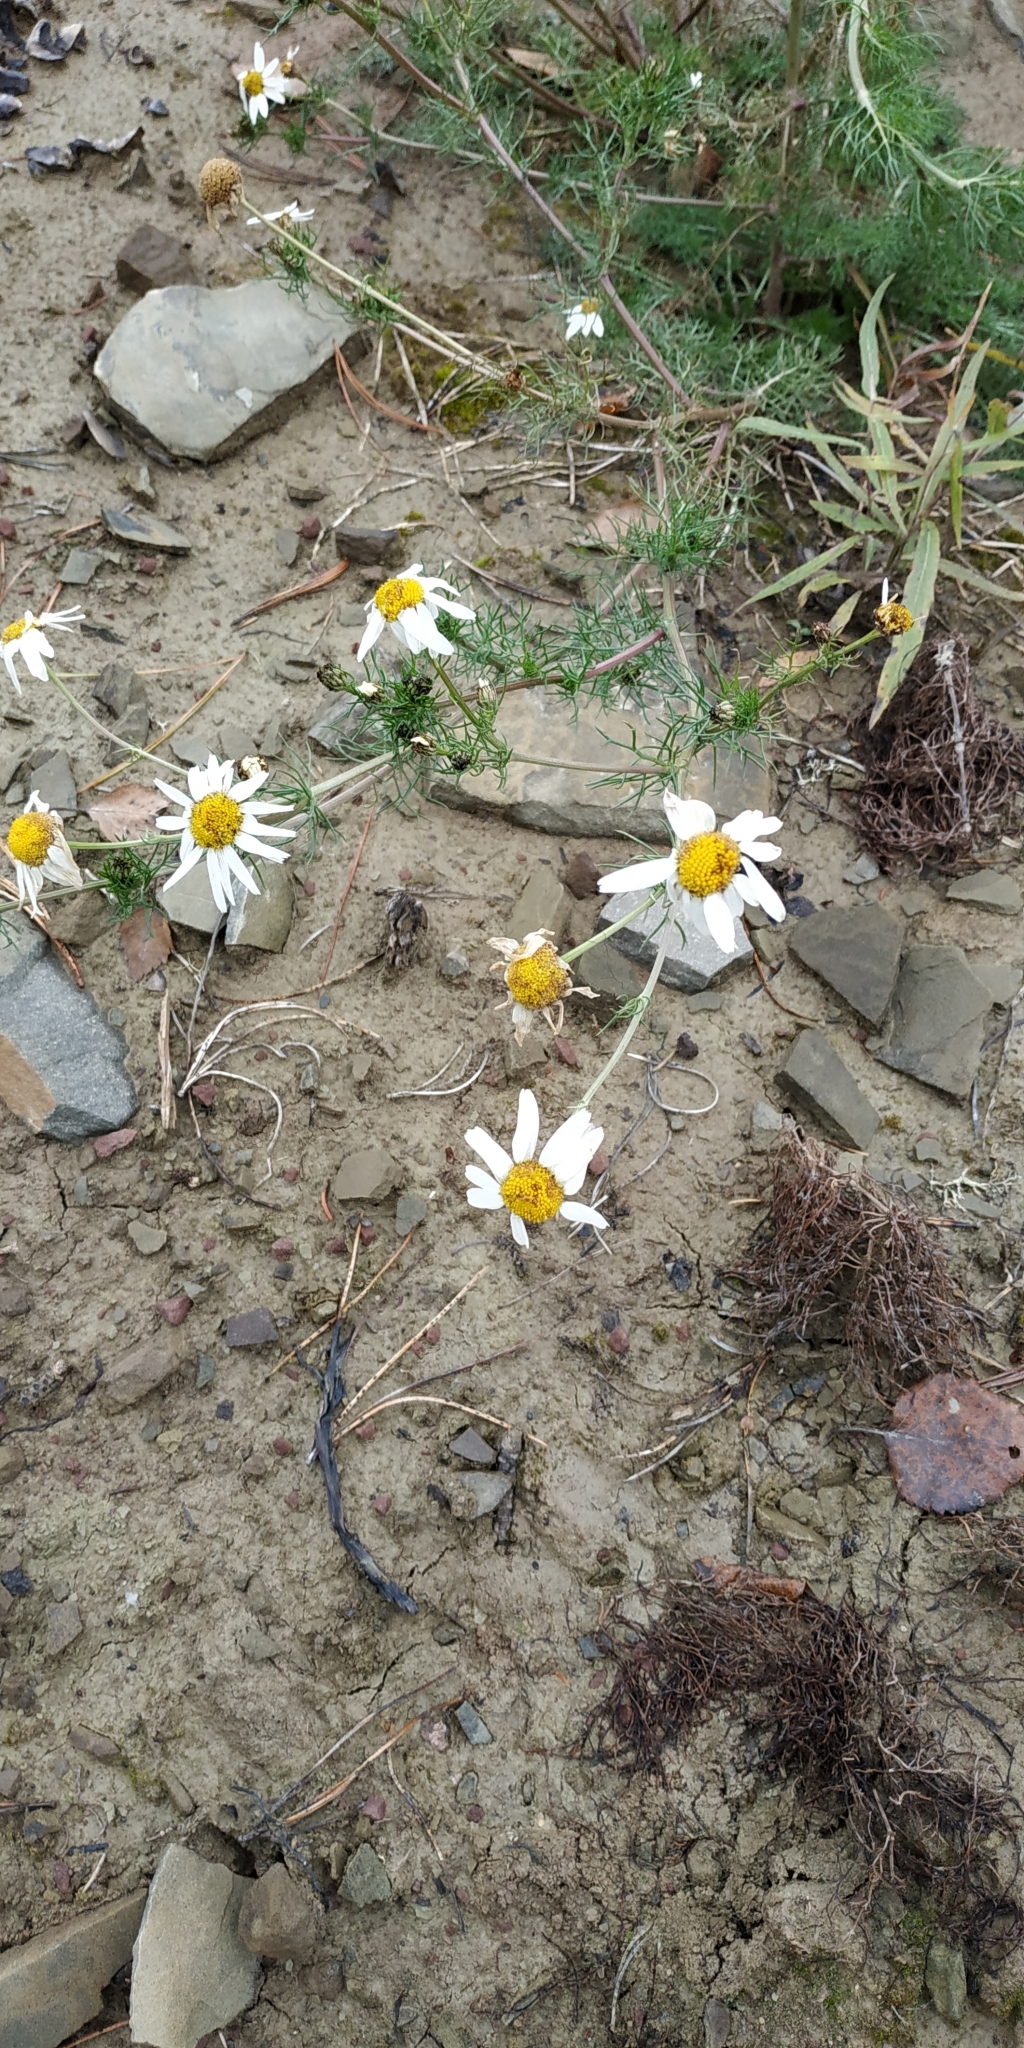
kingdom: Plantae
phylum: Tracheophyta
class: Magnoliopsida
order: Asterales
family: Asteraceae
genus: Tripleurospermum
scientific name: Tripleurospermum inodorum
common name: Scentless mayweed
